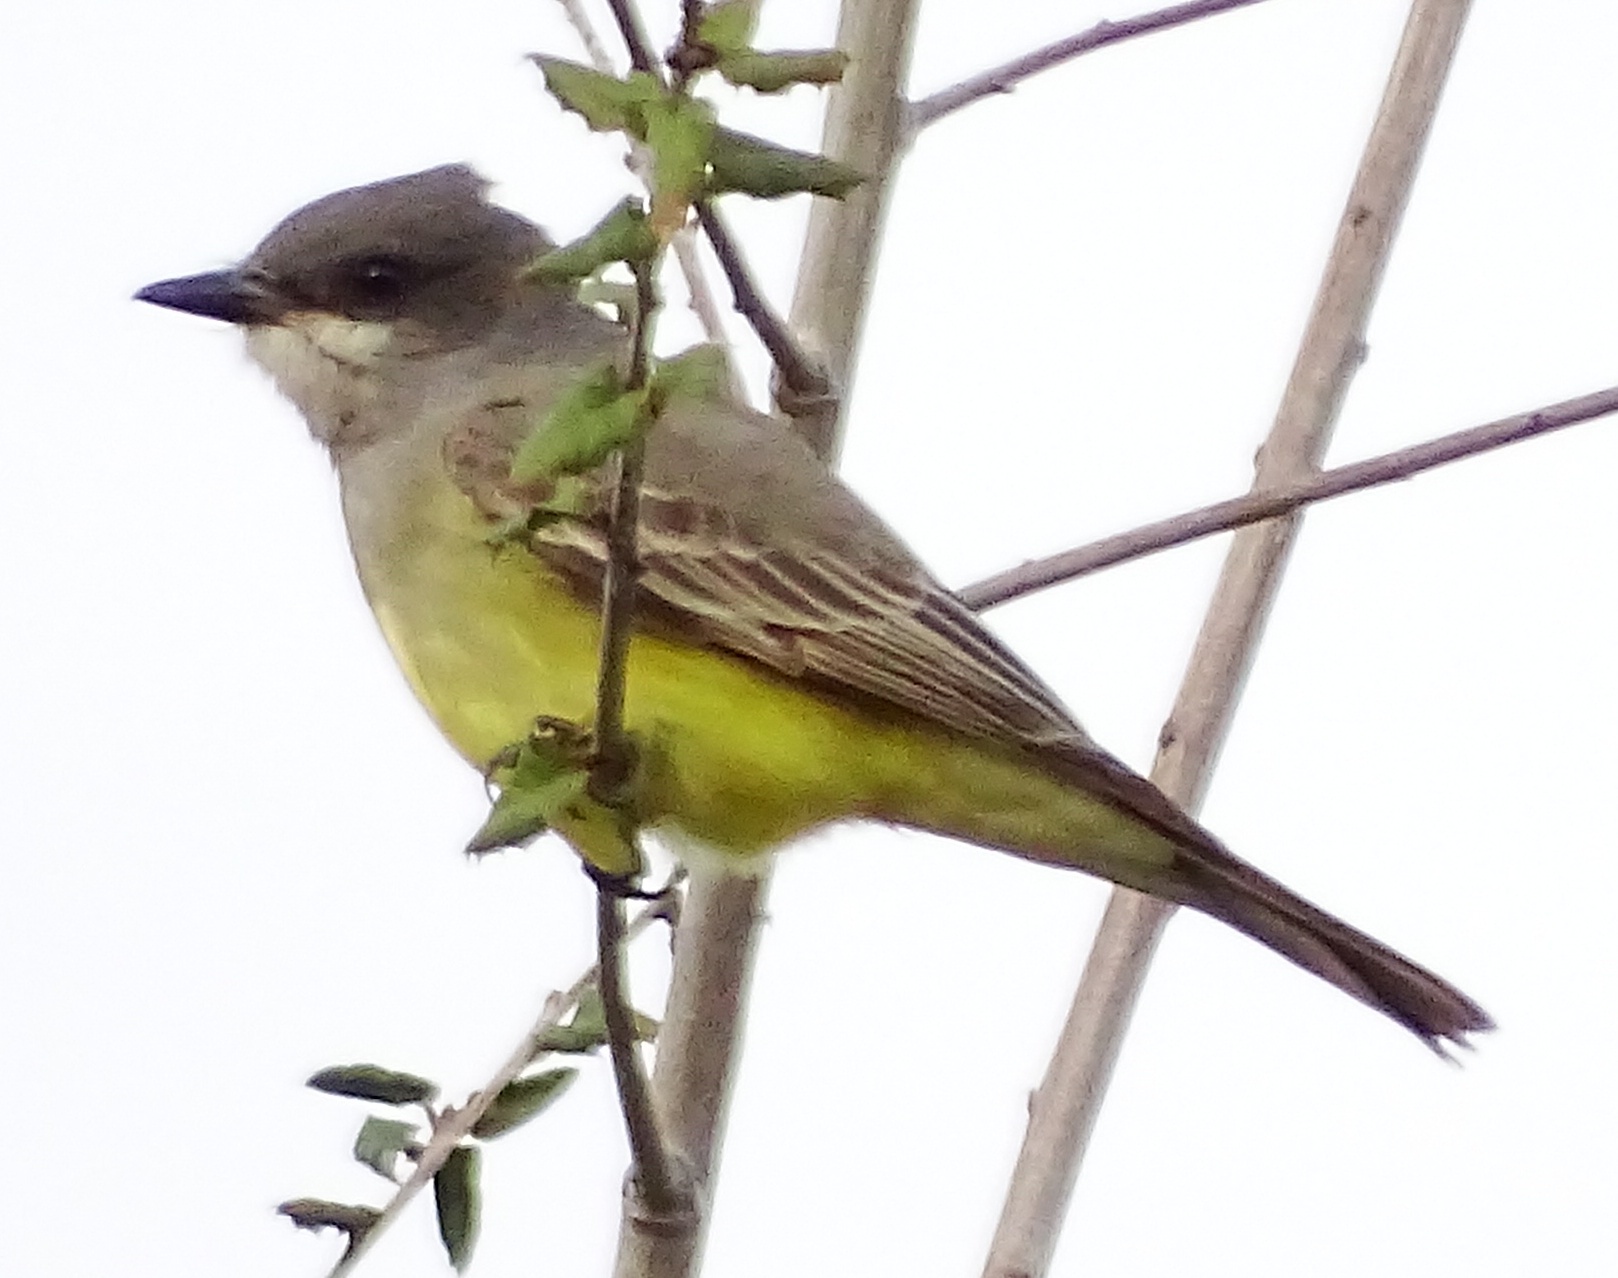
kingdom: Animalia
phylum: Chordata
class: Aves
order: Passeriformes
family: Tyrannidae
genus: Tyrannus
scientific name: Tyrannus vociferans
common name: Cassin's kingbird
